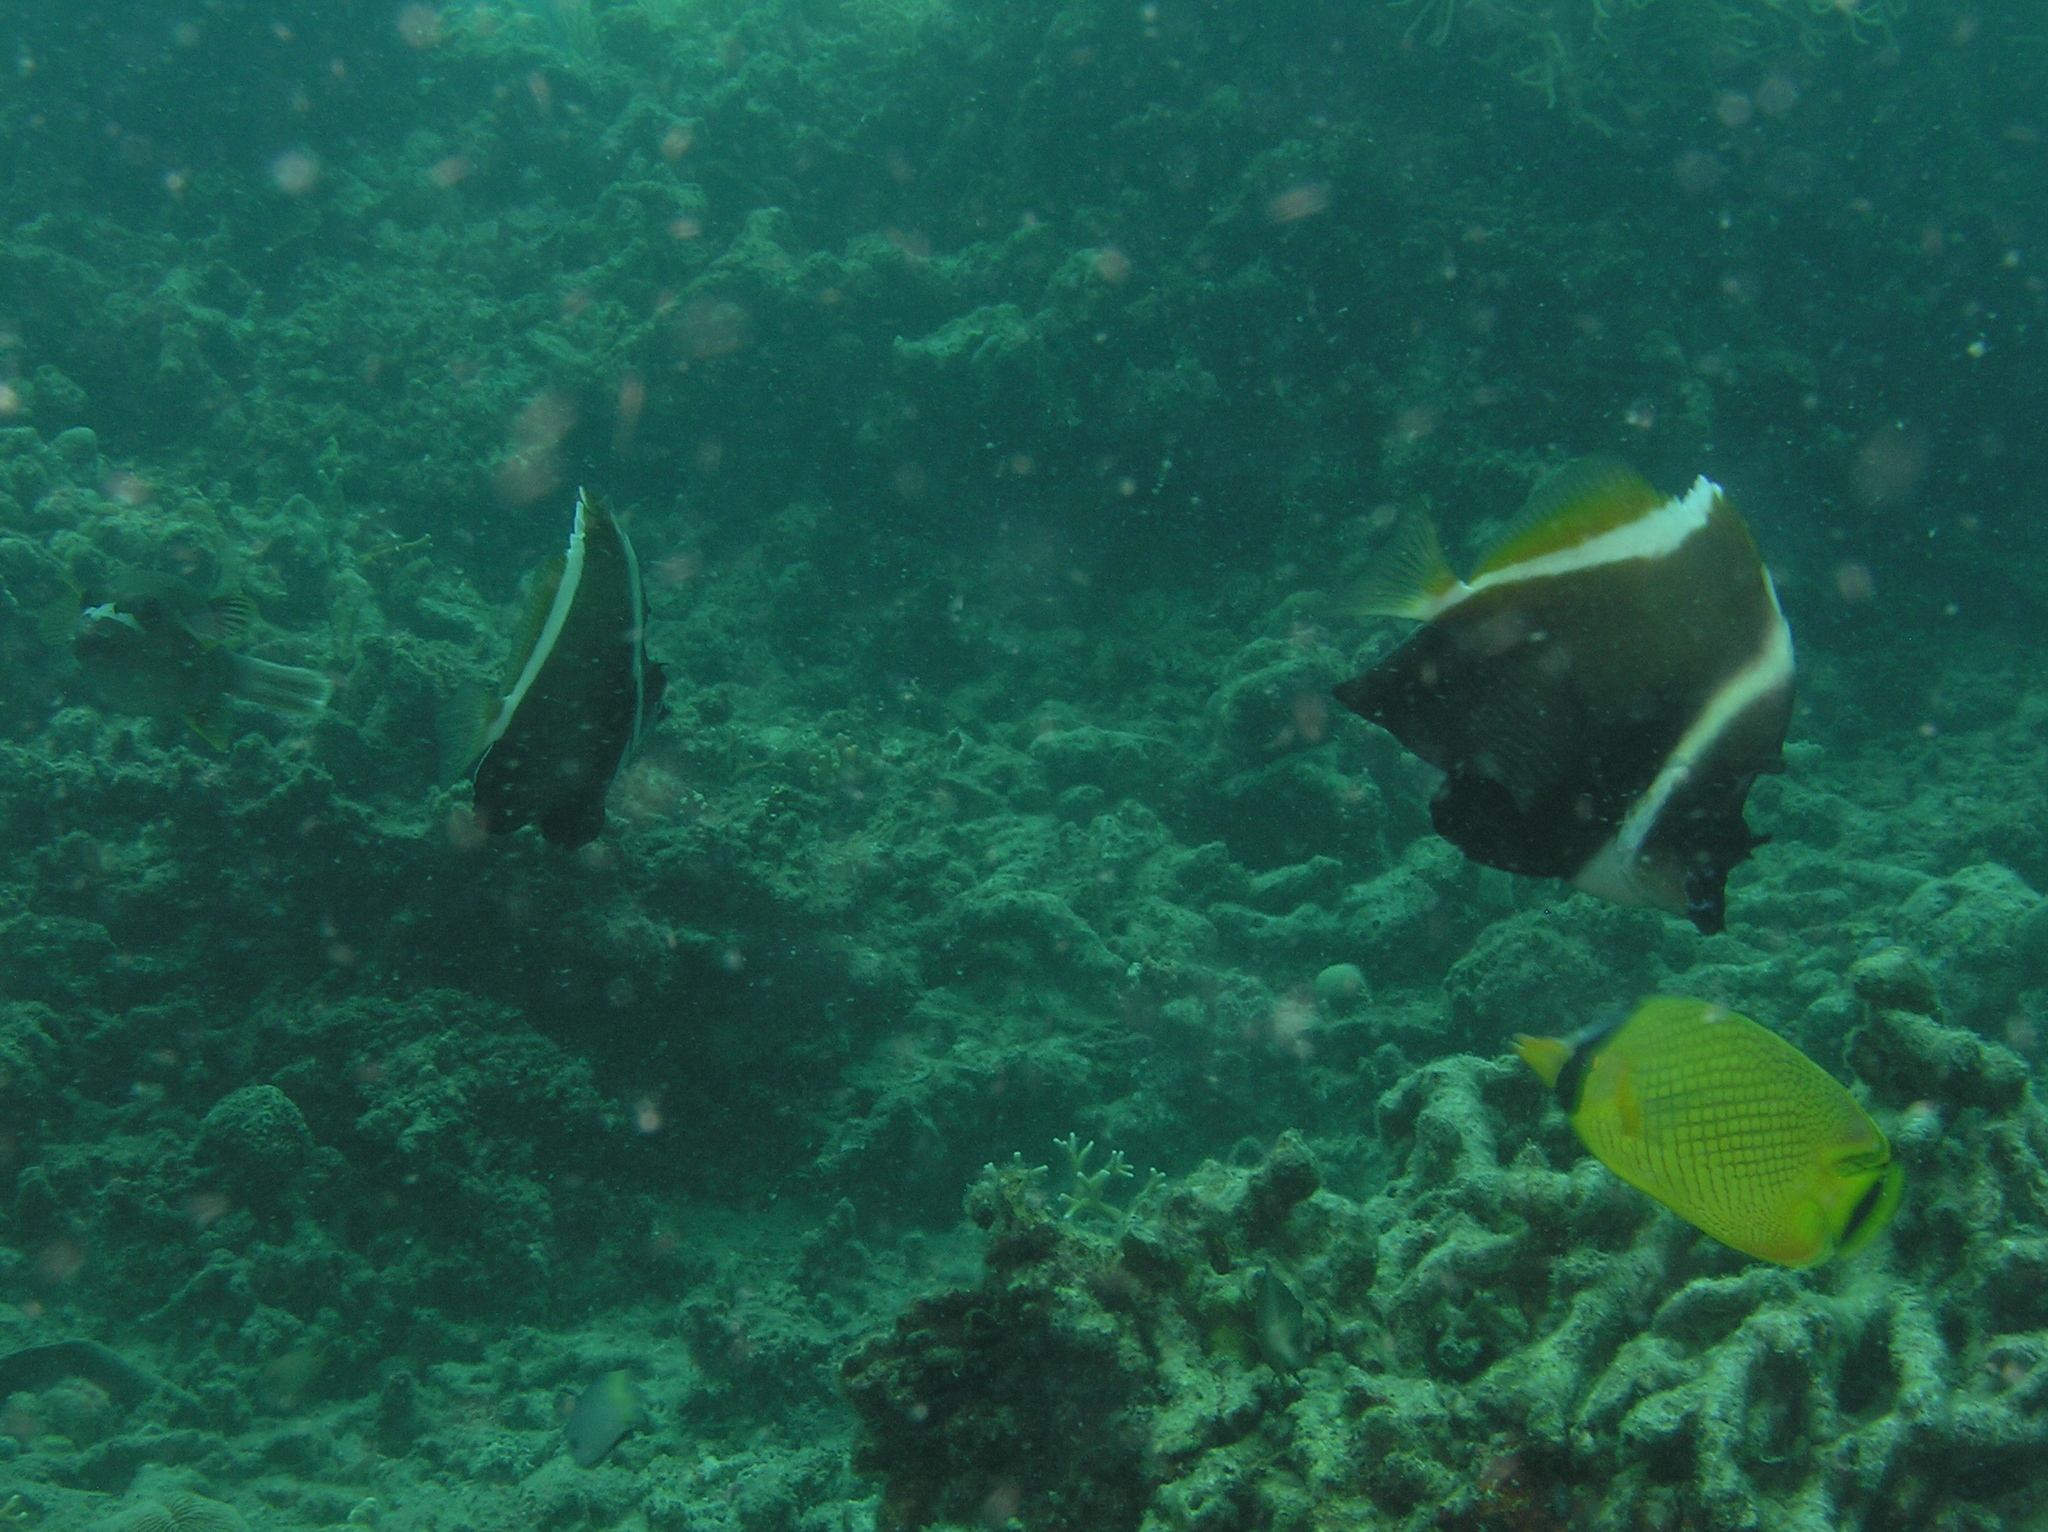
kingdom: Animalia
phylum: Chordata
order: Perciformes
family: Chaetodontidae
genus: Heniochus
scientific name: Heniochus varius
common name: Horned bannerfish
